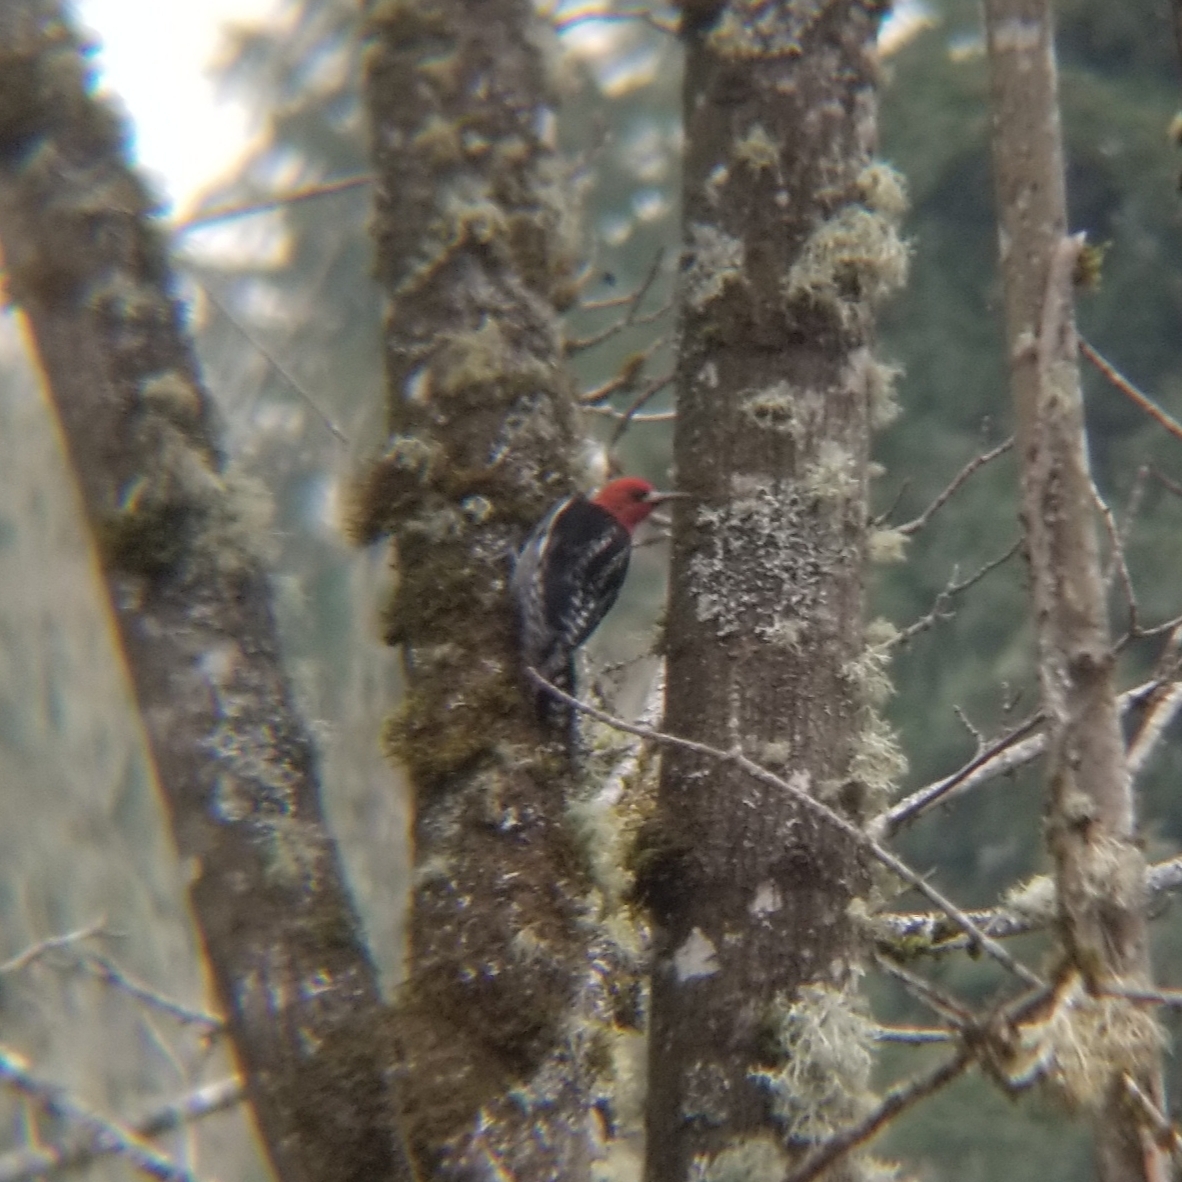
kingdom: Animalia
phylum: Chordata
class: Aves
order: Piciformes
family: Picidae
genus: Sphyrapicus
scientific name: Sphyrapicus ruber
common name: Red-breasted sapsucker
